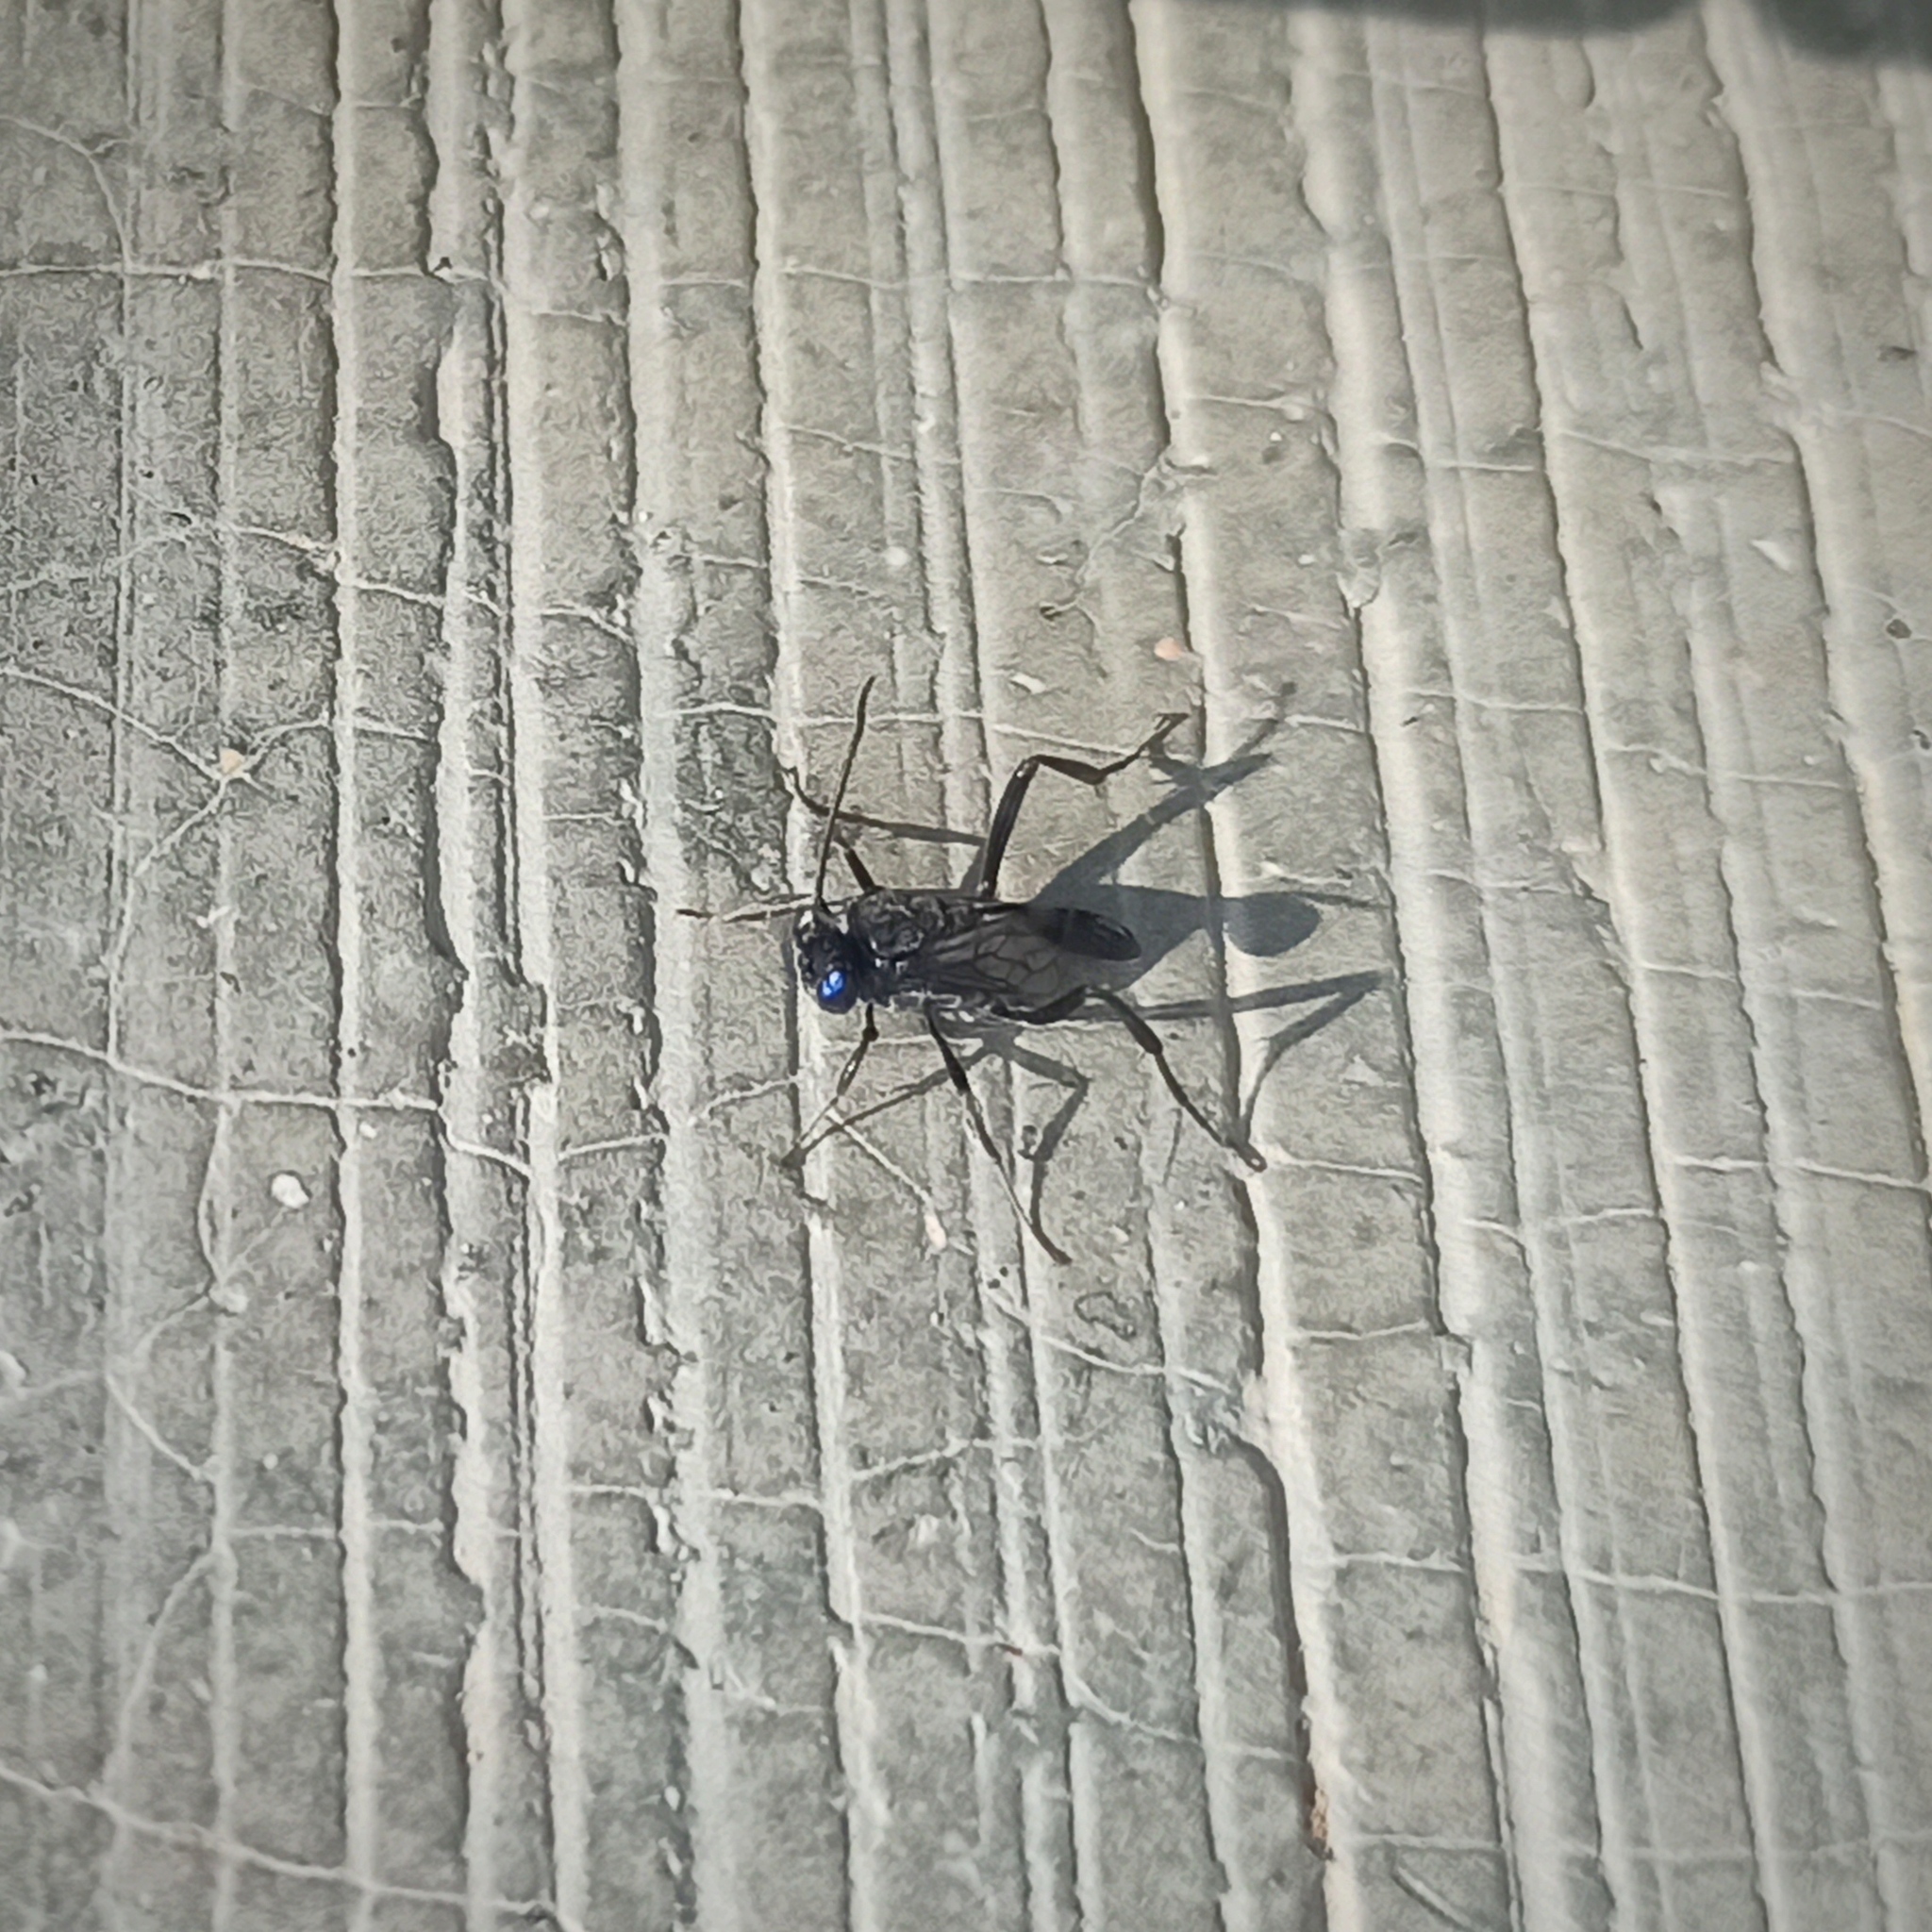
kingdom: Animalia
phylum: Arthropoda
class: Insecta
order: Hymenoptera
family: Evaniidae
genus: Evania
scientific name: Evania appendigaster
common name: Ensign wasp
